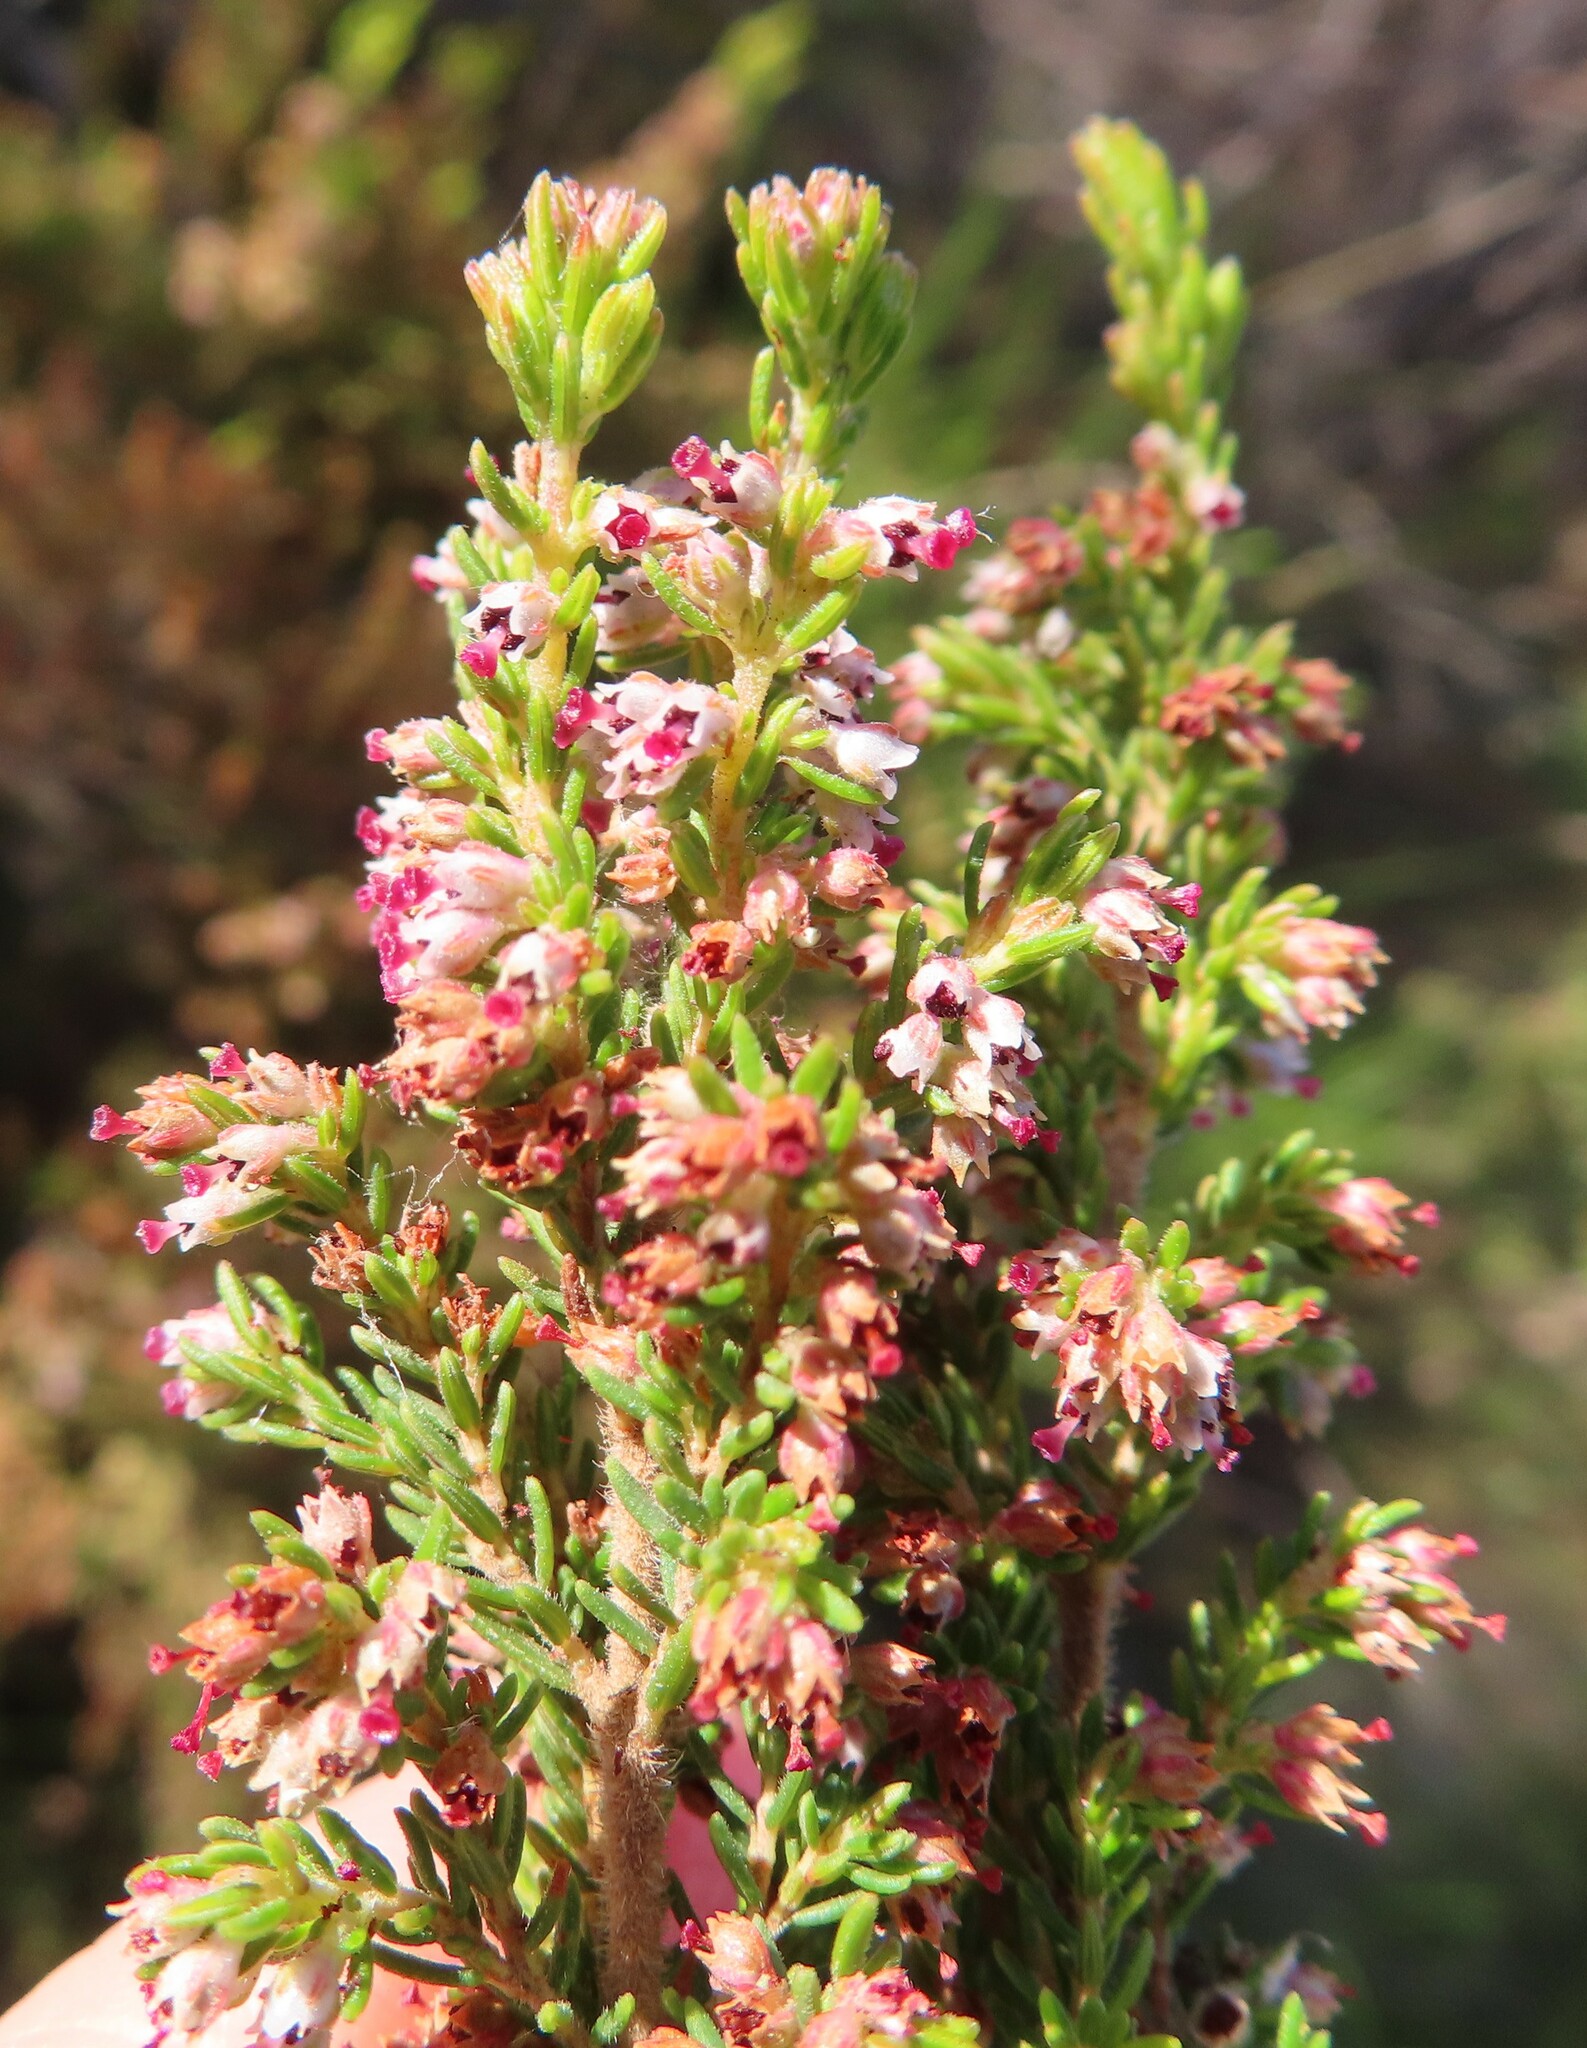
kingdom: Plantae
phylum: Tracheophyta
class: Magnoliopsida
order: Ericales
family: Ericaceae
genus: Erica
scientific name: Erica hispidula
